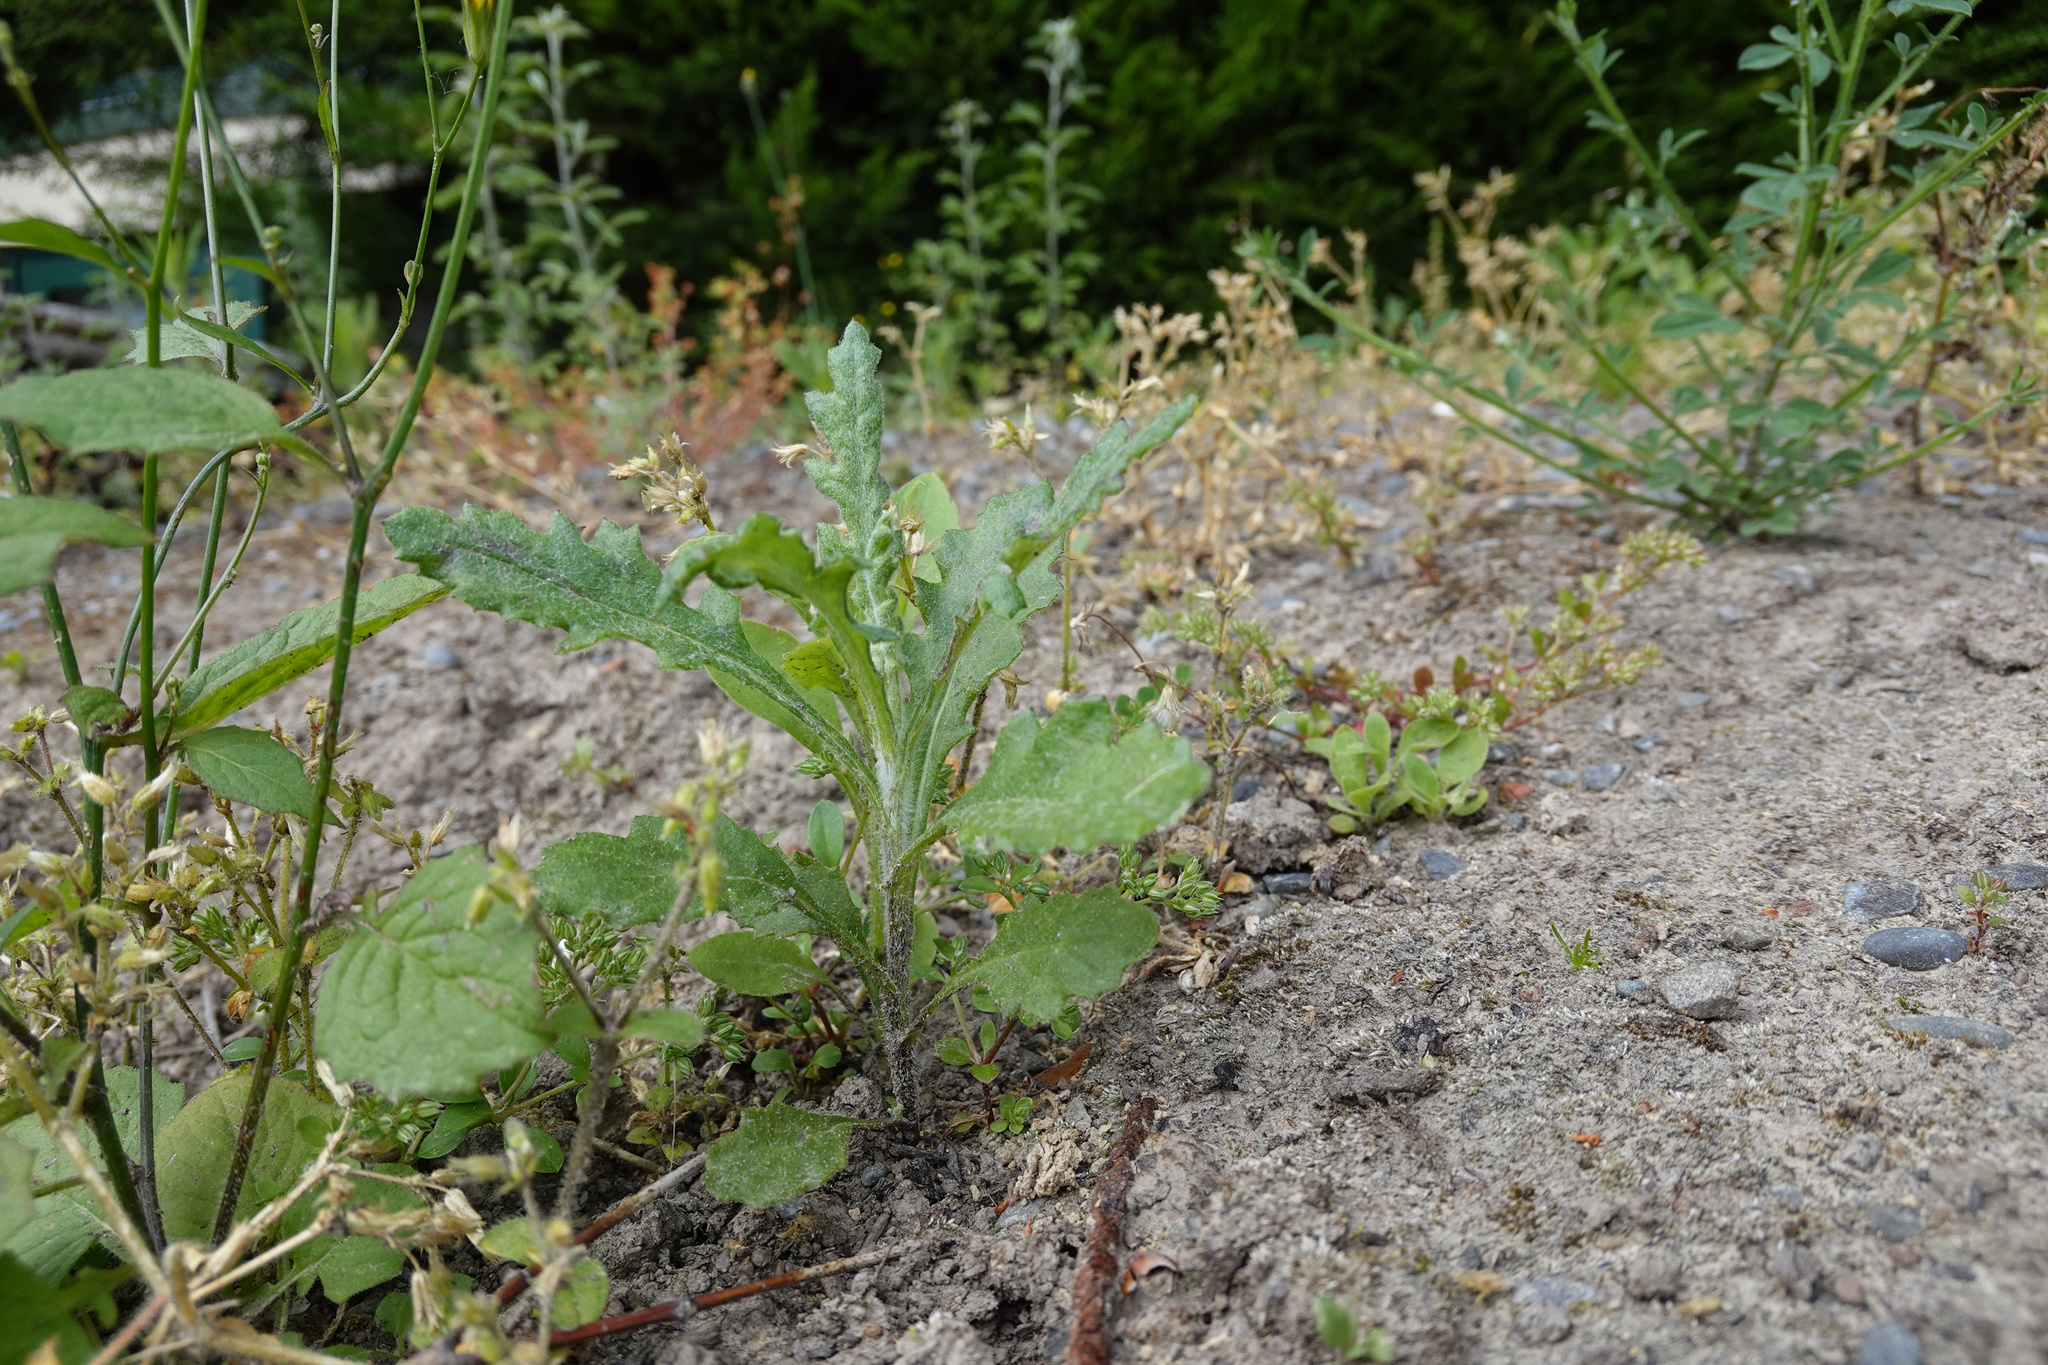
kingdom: Plantae
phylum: Tracheophyta
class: Magnoliopsida
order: Asterales
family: Asteraceae
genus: Senecio
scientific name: Senecio glomeratus
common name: Cutleaf burnweed
